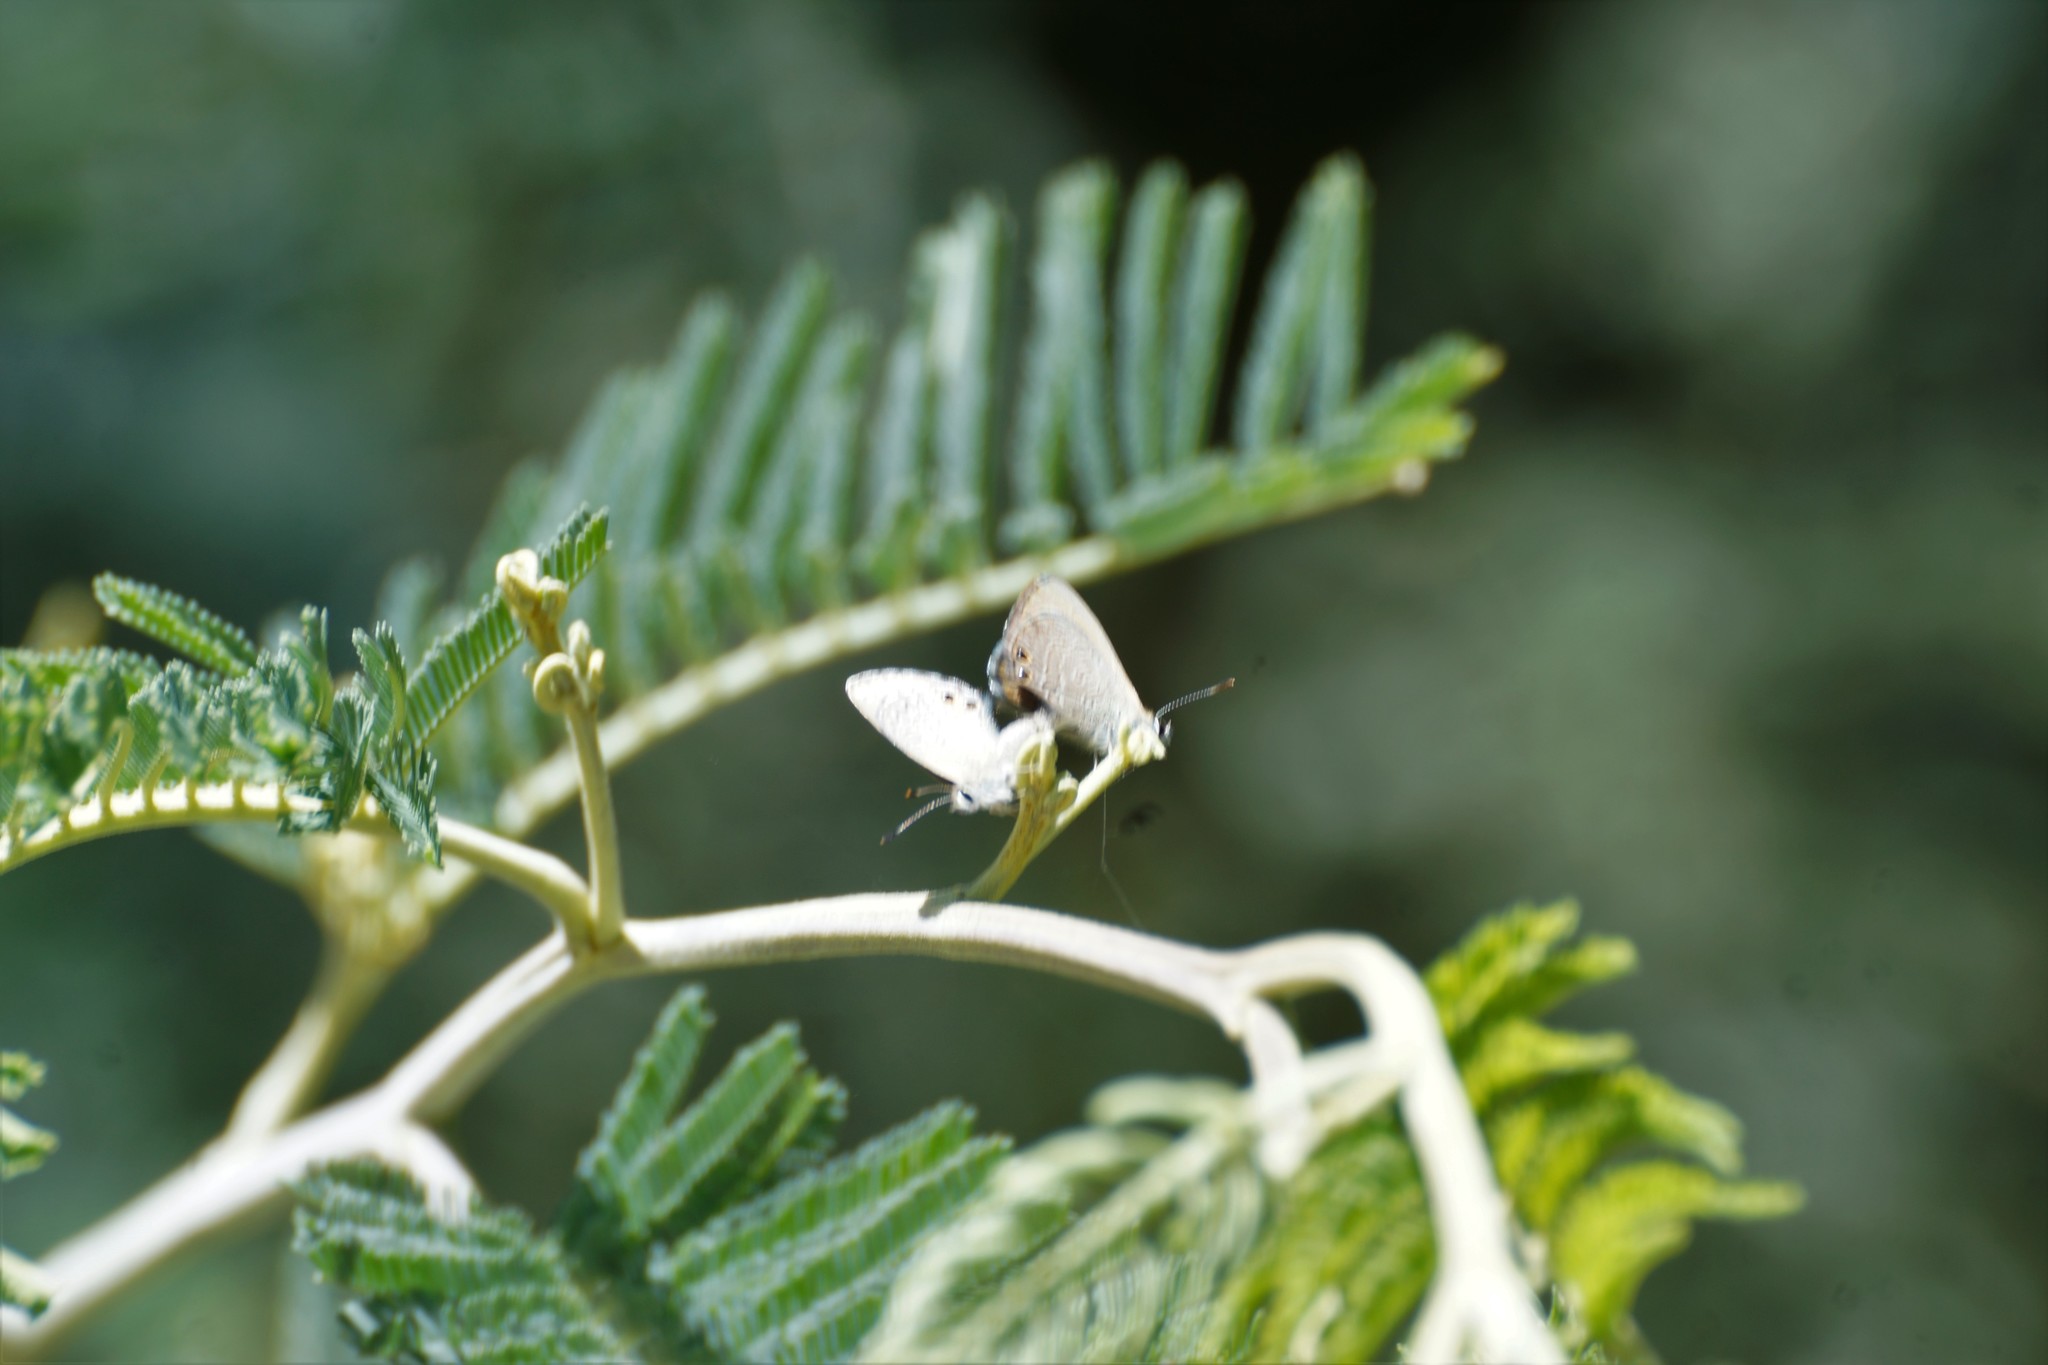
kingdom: Animalia
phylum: Arthropoda
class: Insecta
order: Lepidoptera
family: Lycaenidae
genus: Nacaduba
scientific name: Nacaduba biocellata
